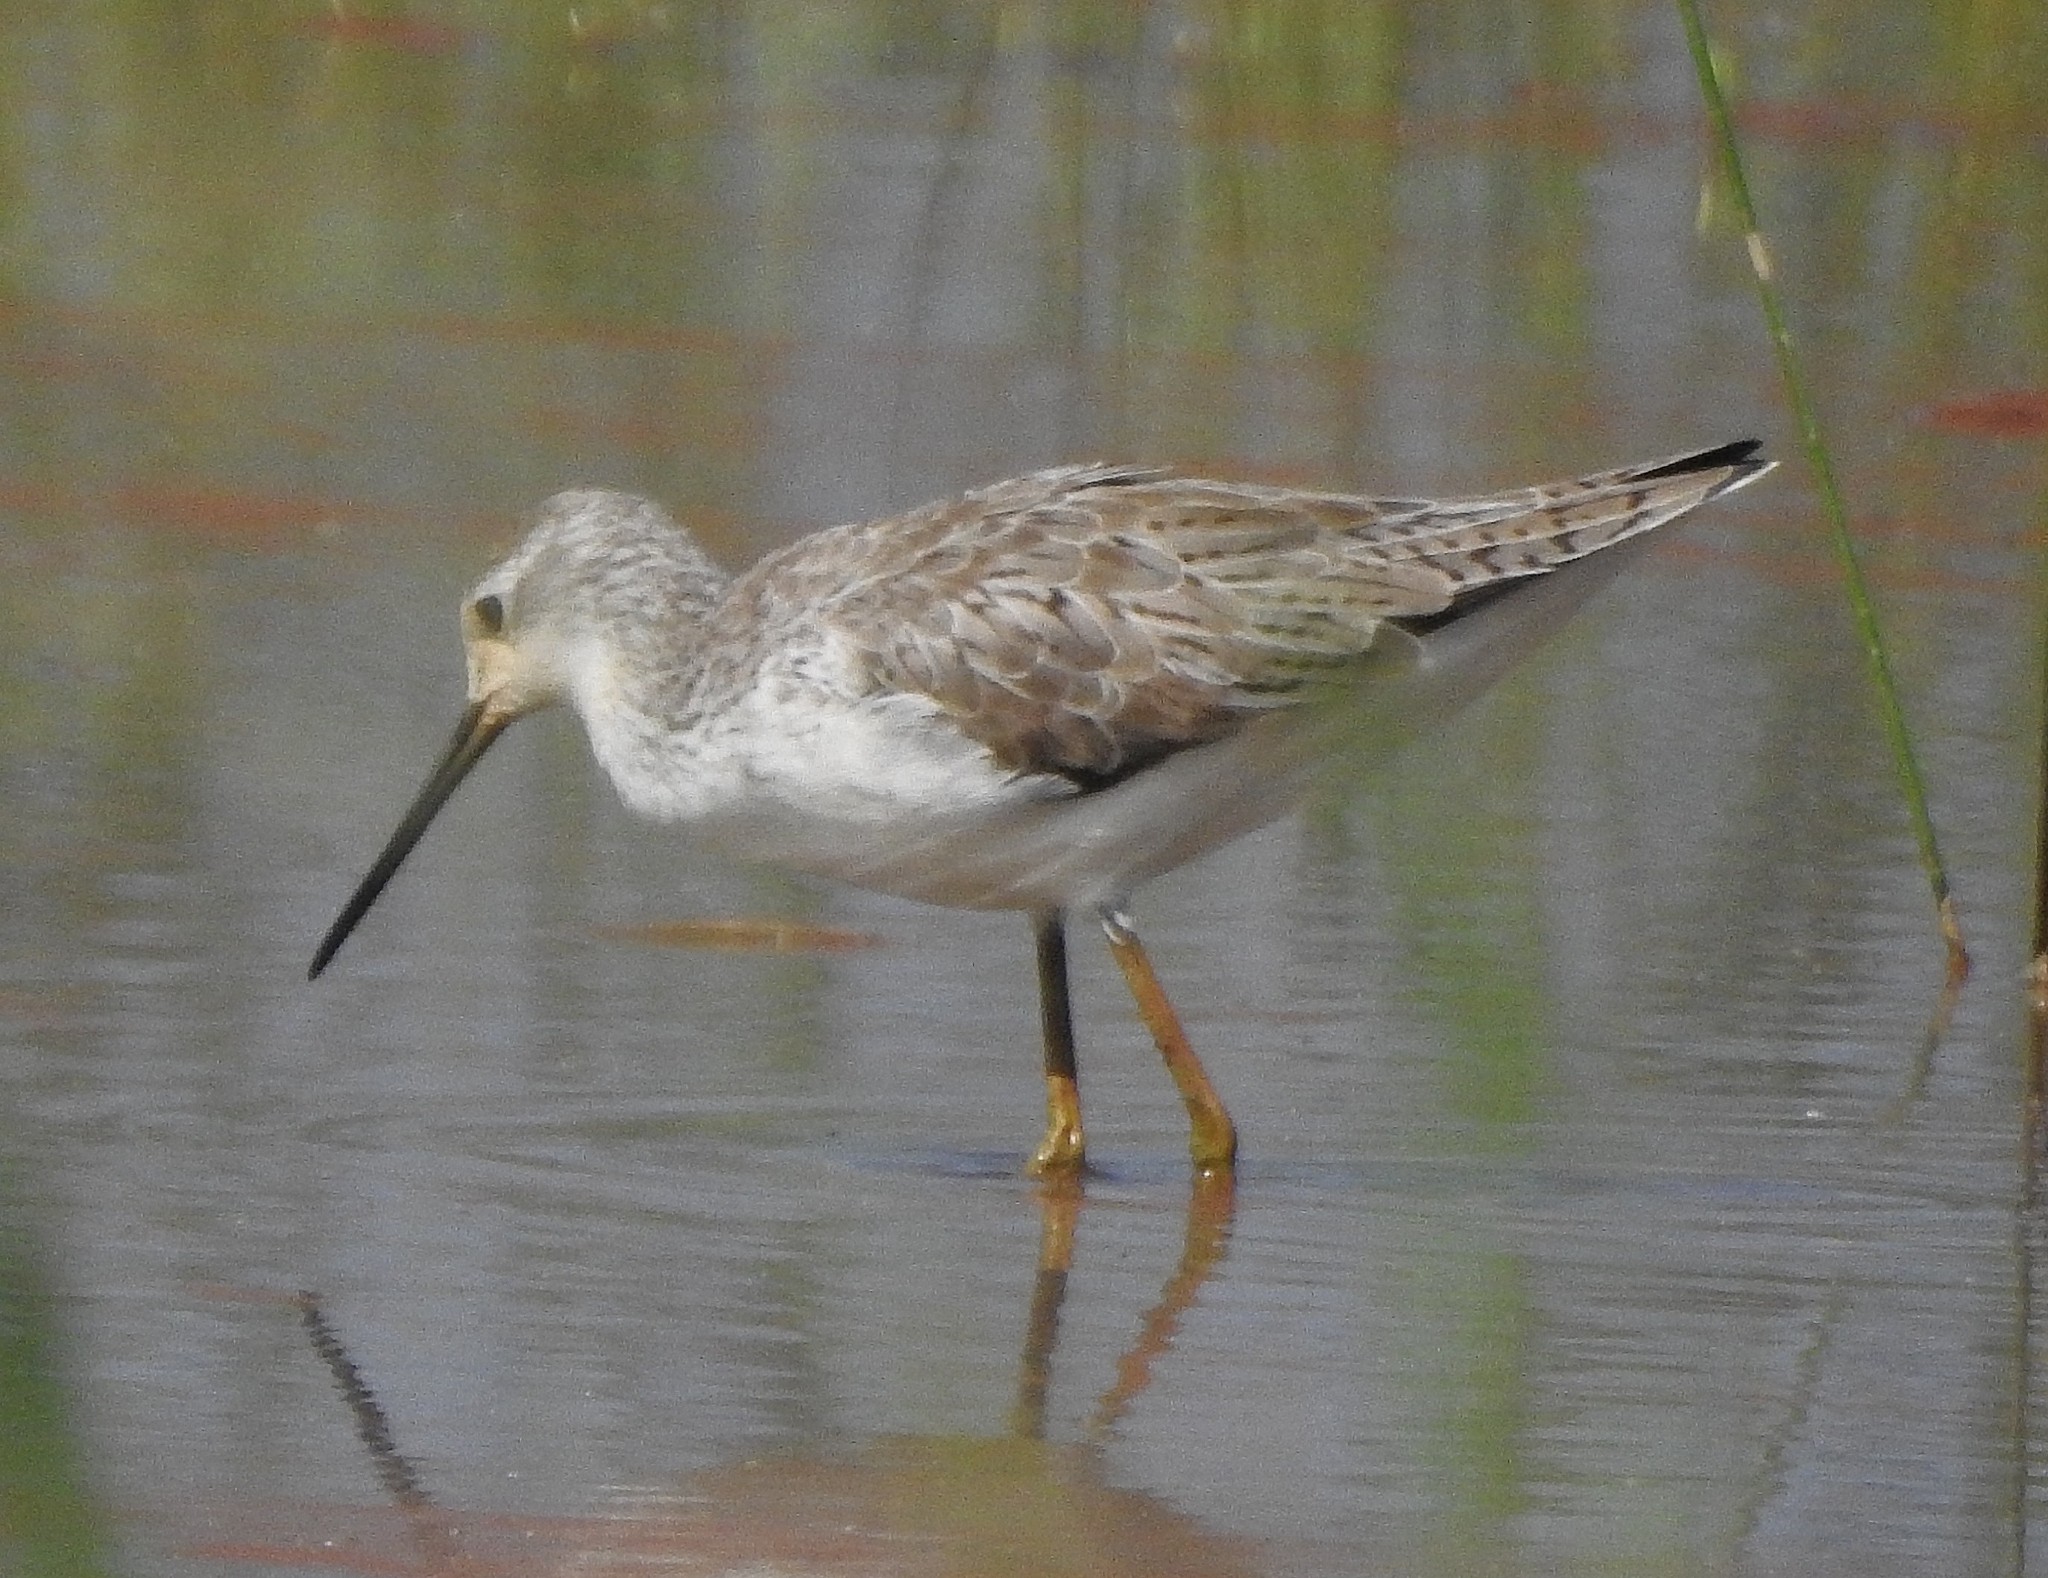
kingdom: Animalia
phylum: Chordata
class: Aves
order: Charadriiformes
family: Scolopacidae
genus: Tringa
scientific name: Tringa stagnatilis
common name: Marsh sandpiper
